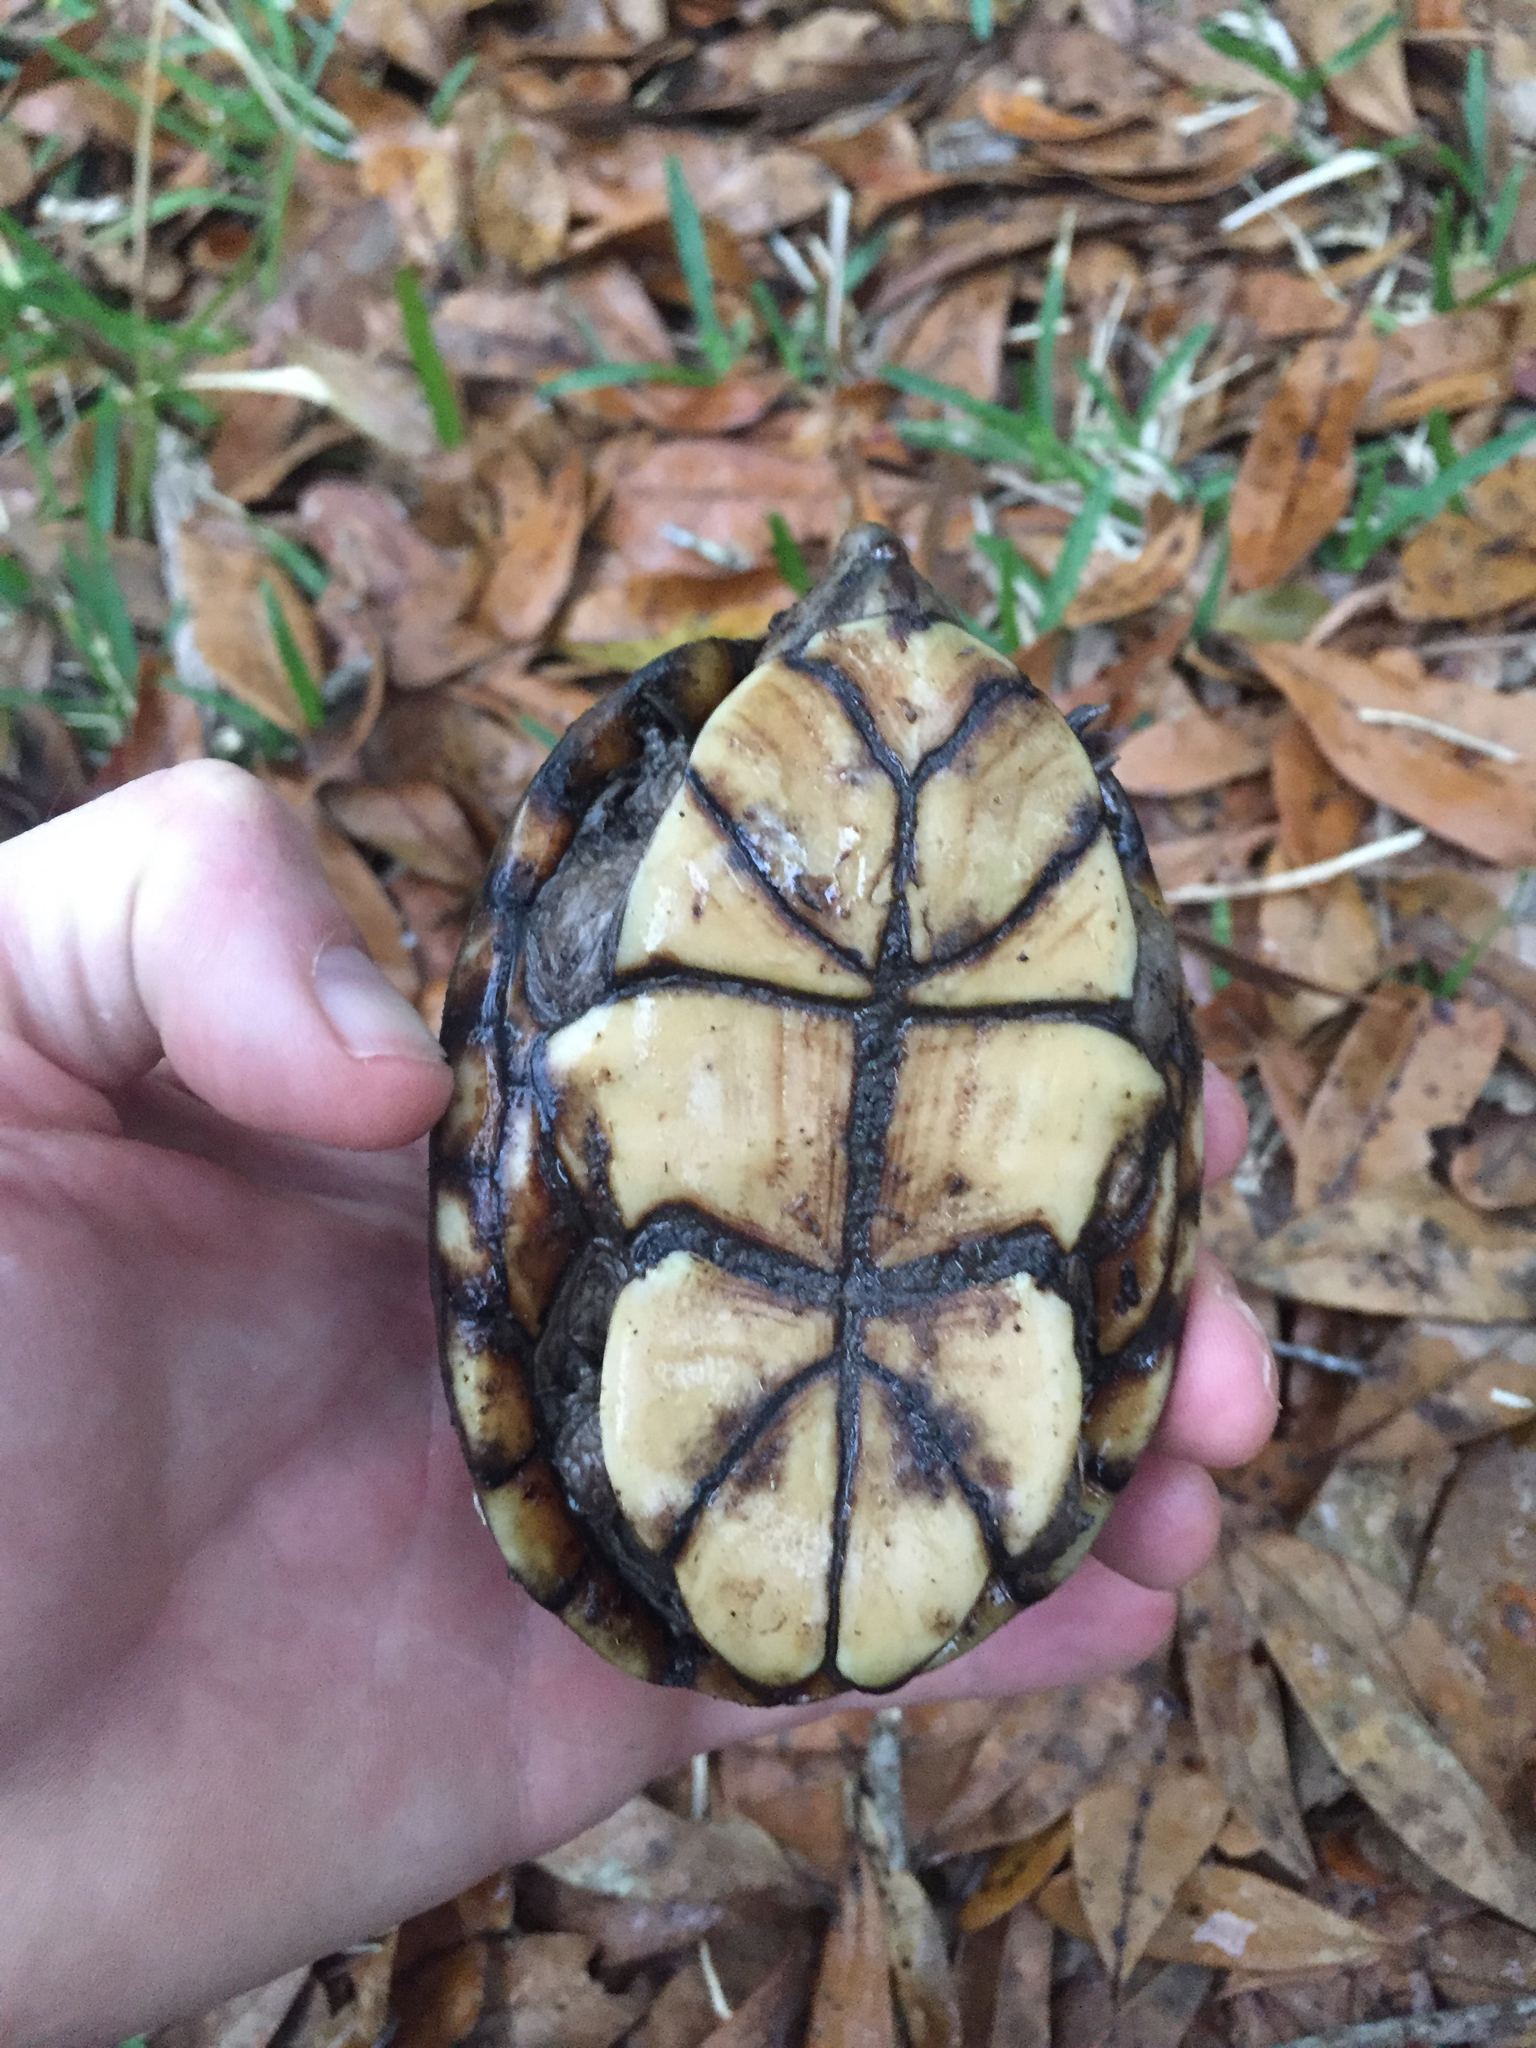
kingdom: Animalia
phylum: Chordata
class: Testudines
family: Kinosternidae
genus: Kinosternon
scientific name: Kinosternon subrubrum
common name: Eastern mud turtle
